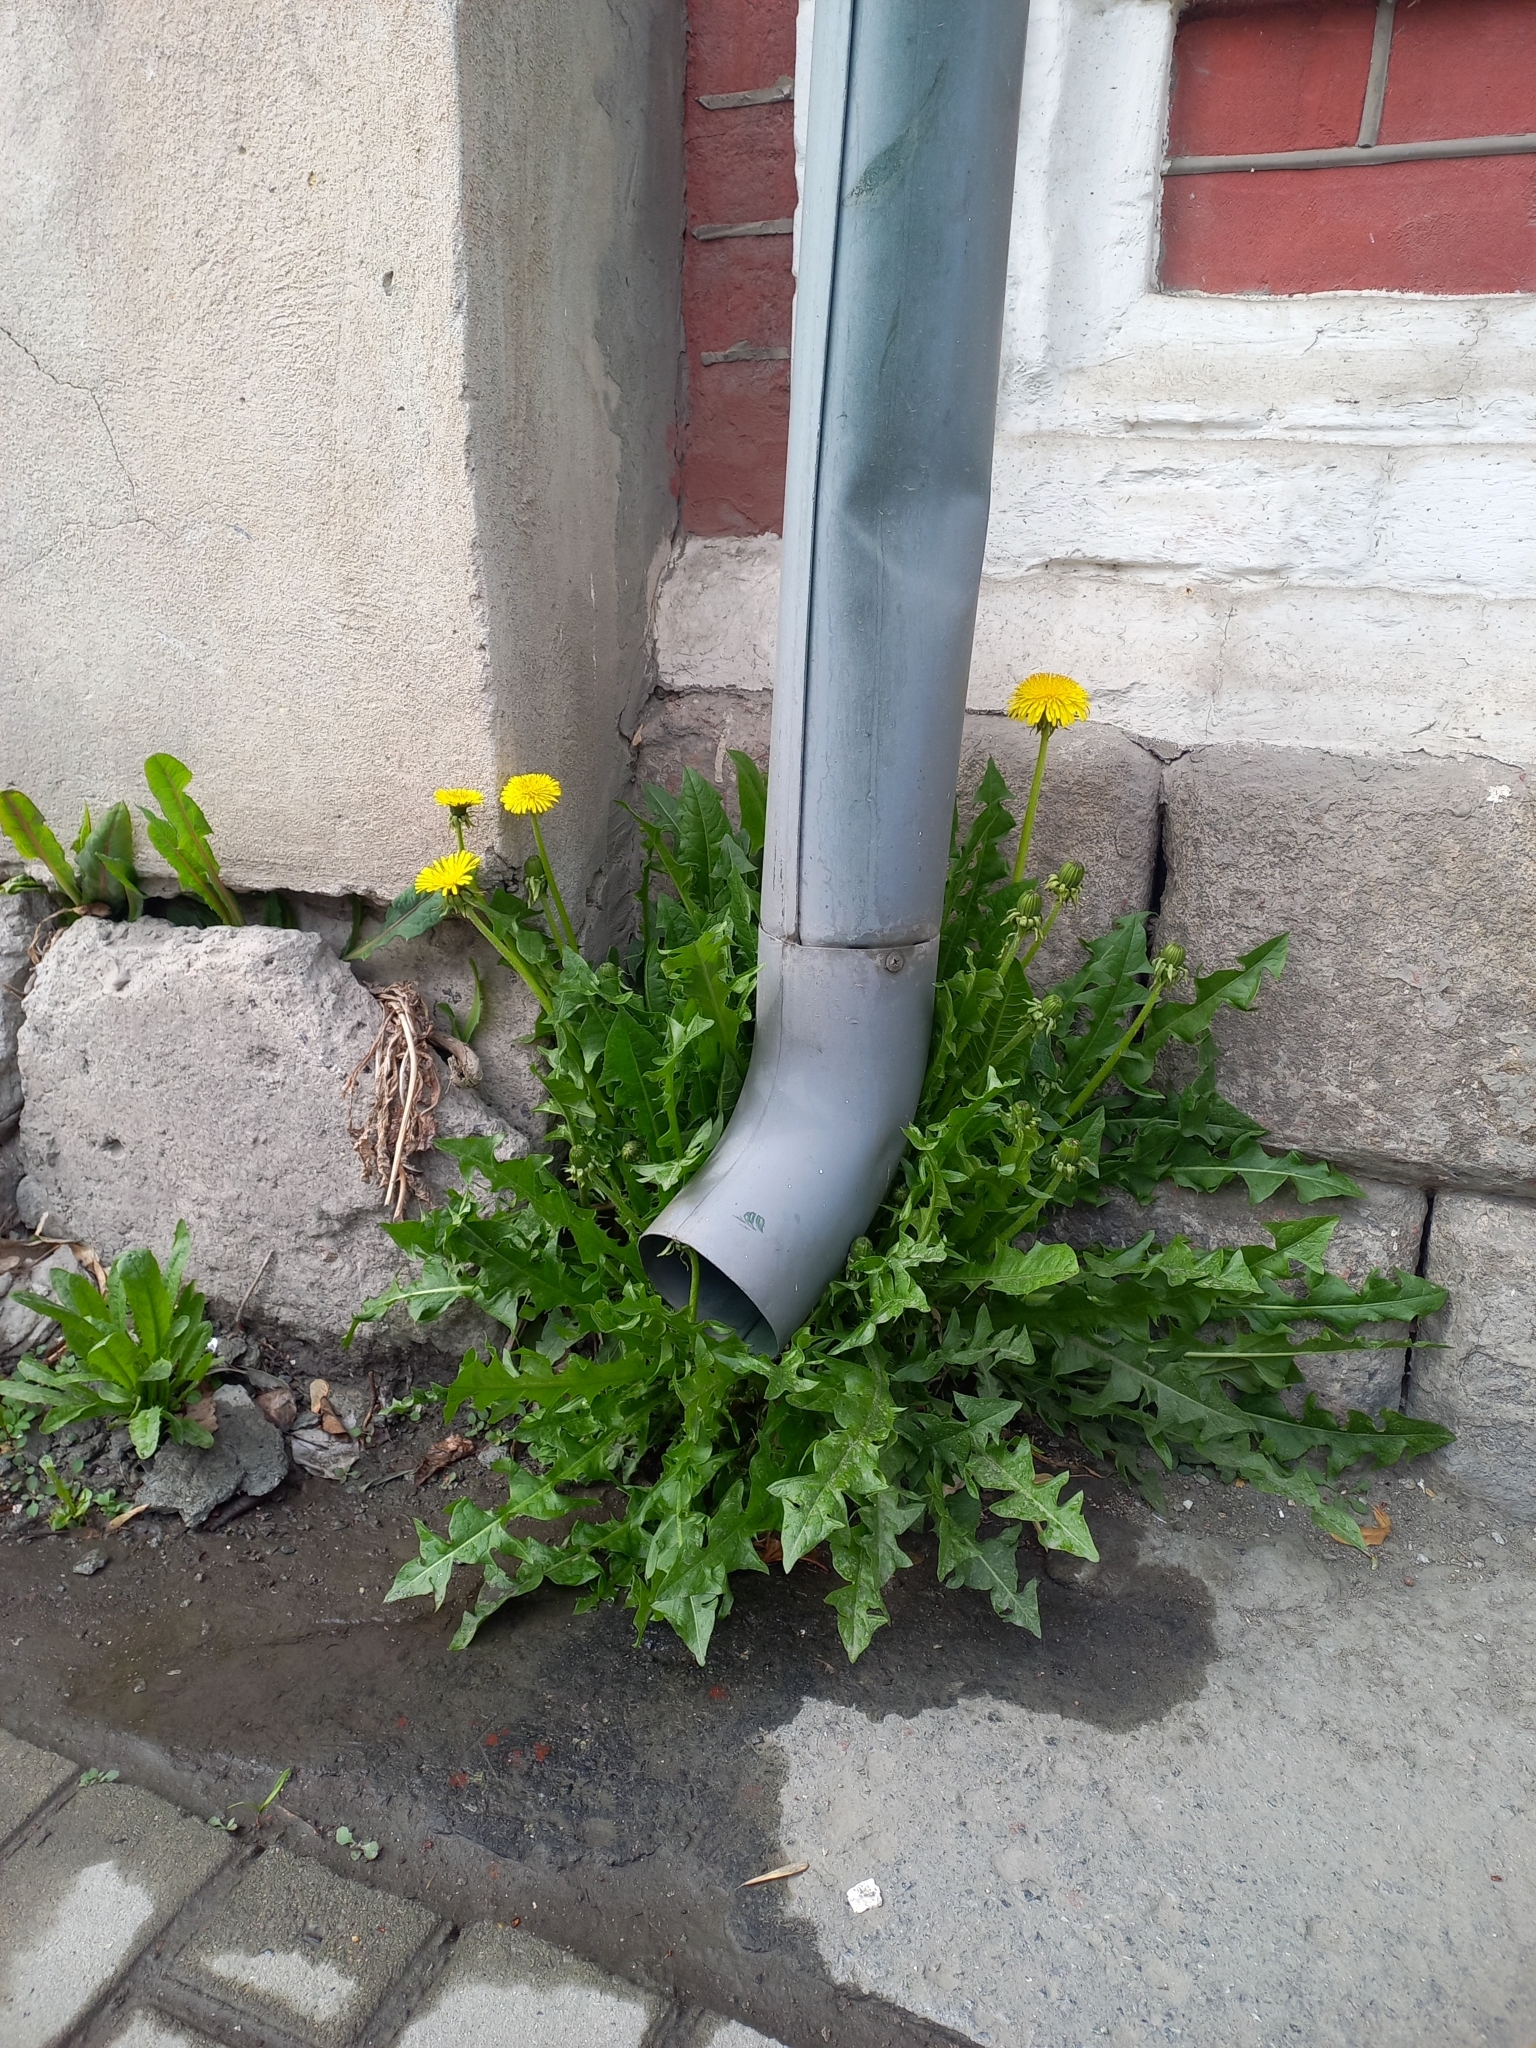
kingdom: Plantae
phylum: Tracheophyta
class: Magnoliopsida
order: Asterales
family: Asteraceae
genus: Taraxacum
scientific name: Taraxacum officinale
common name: Common dandelion
